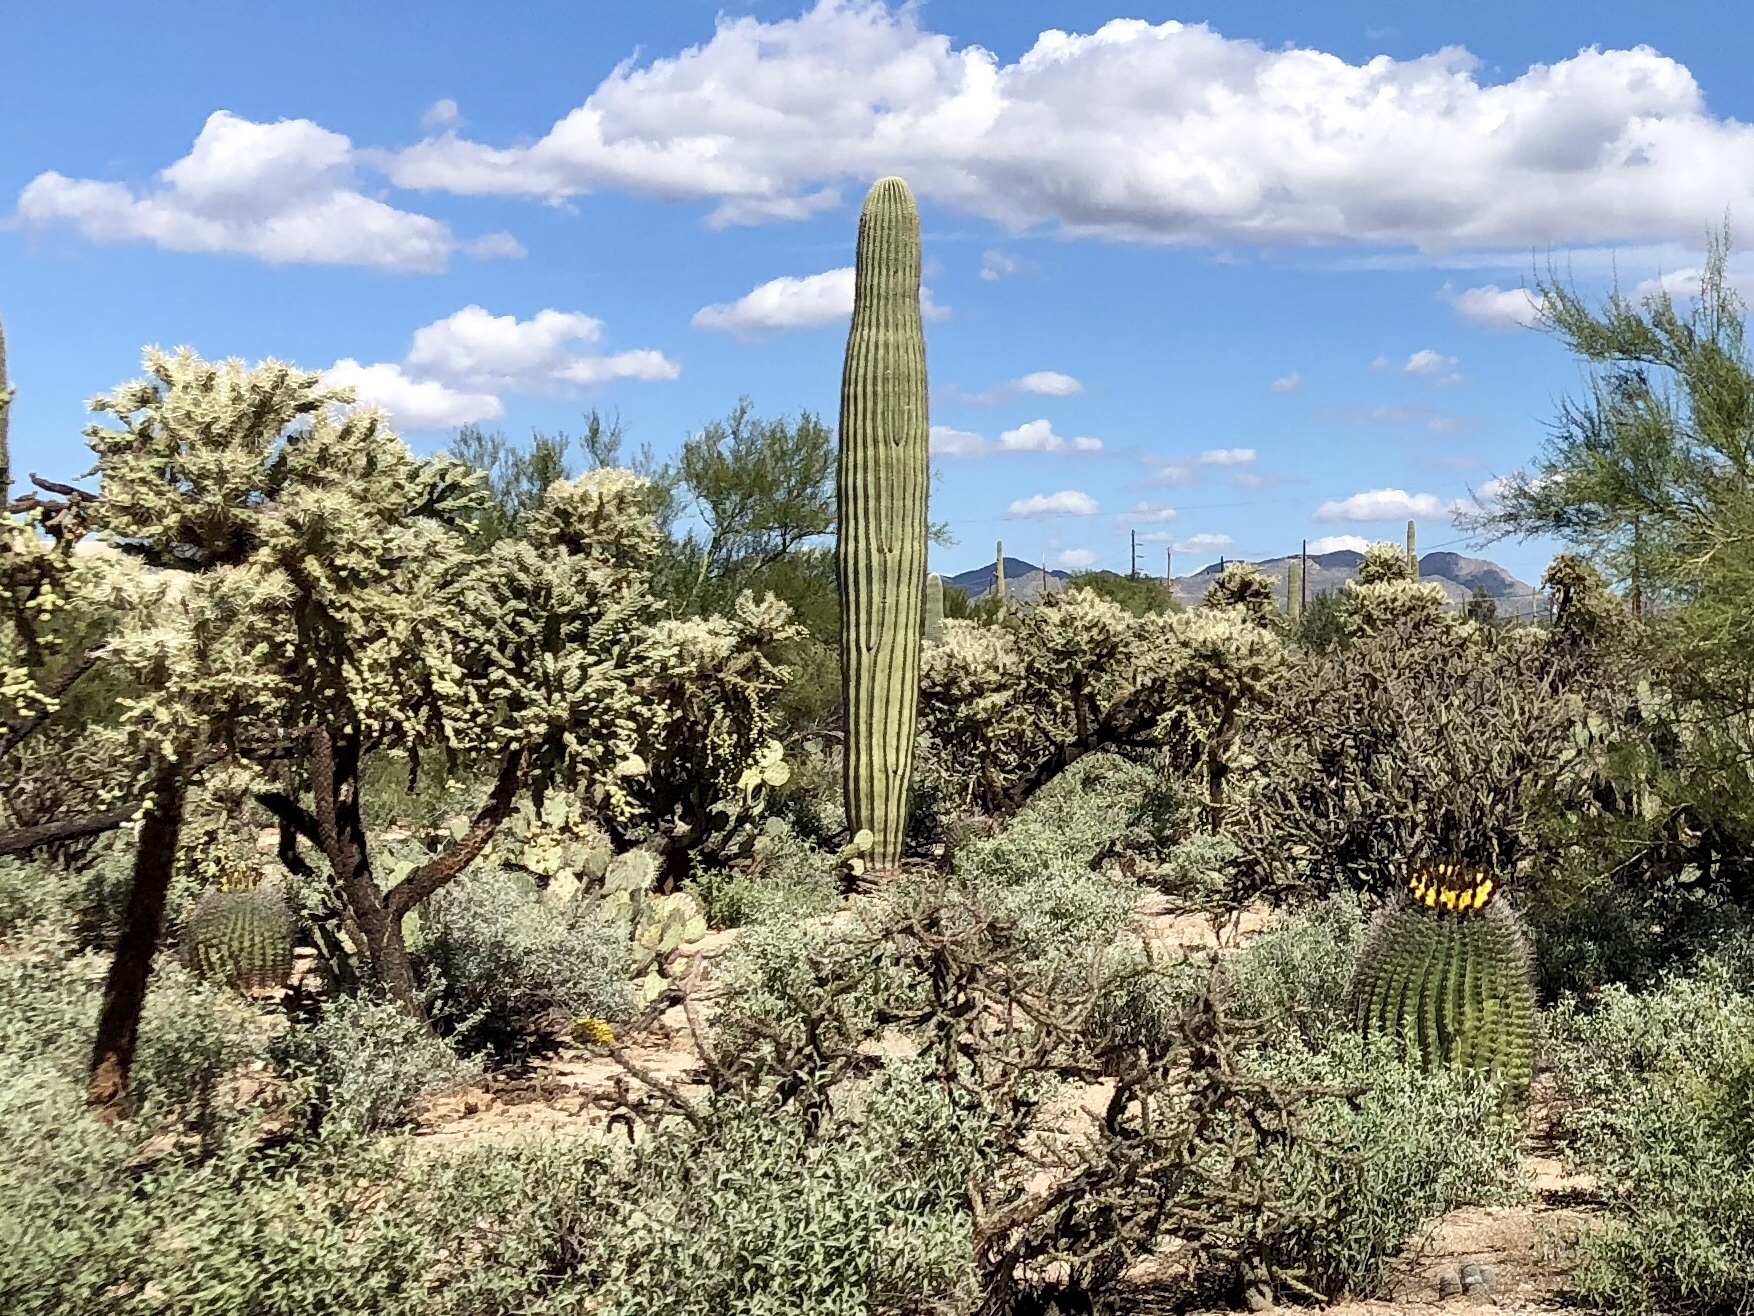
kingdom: Plantae
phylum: Tracheophyta
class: Magnoliopsida
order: Caryophyllales
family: Cactaceae
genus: Carnegiea
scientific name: Carnegiea gigantea
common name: Saguaro
